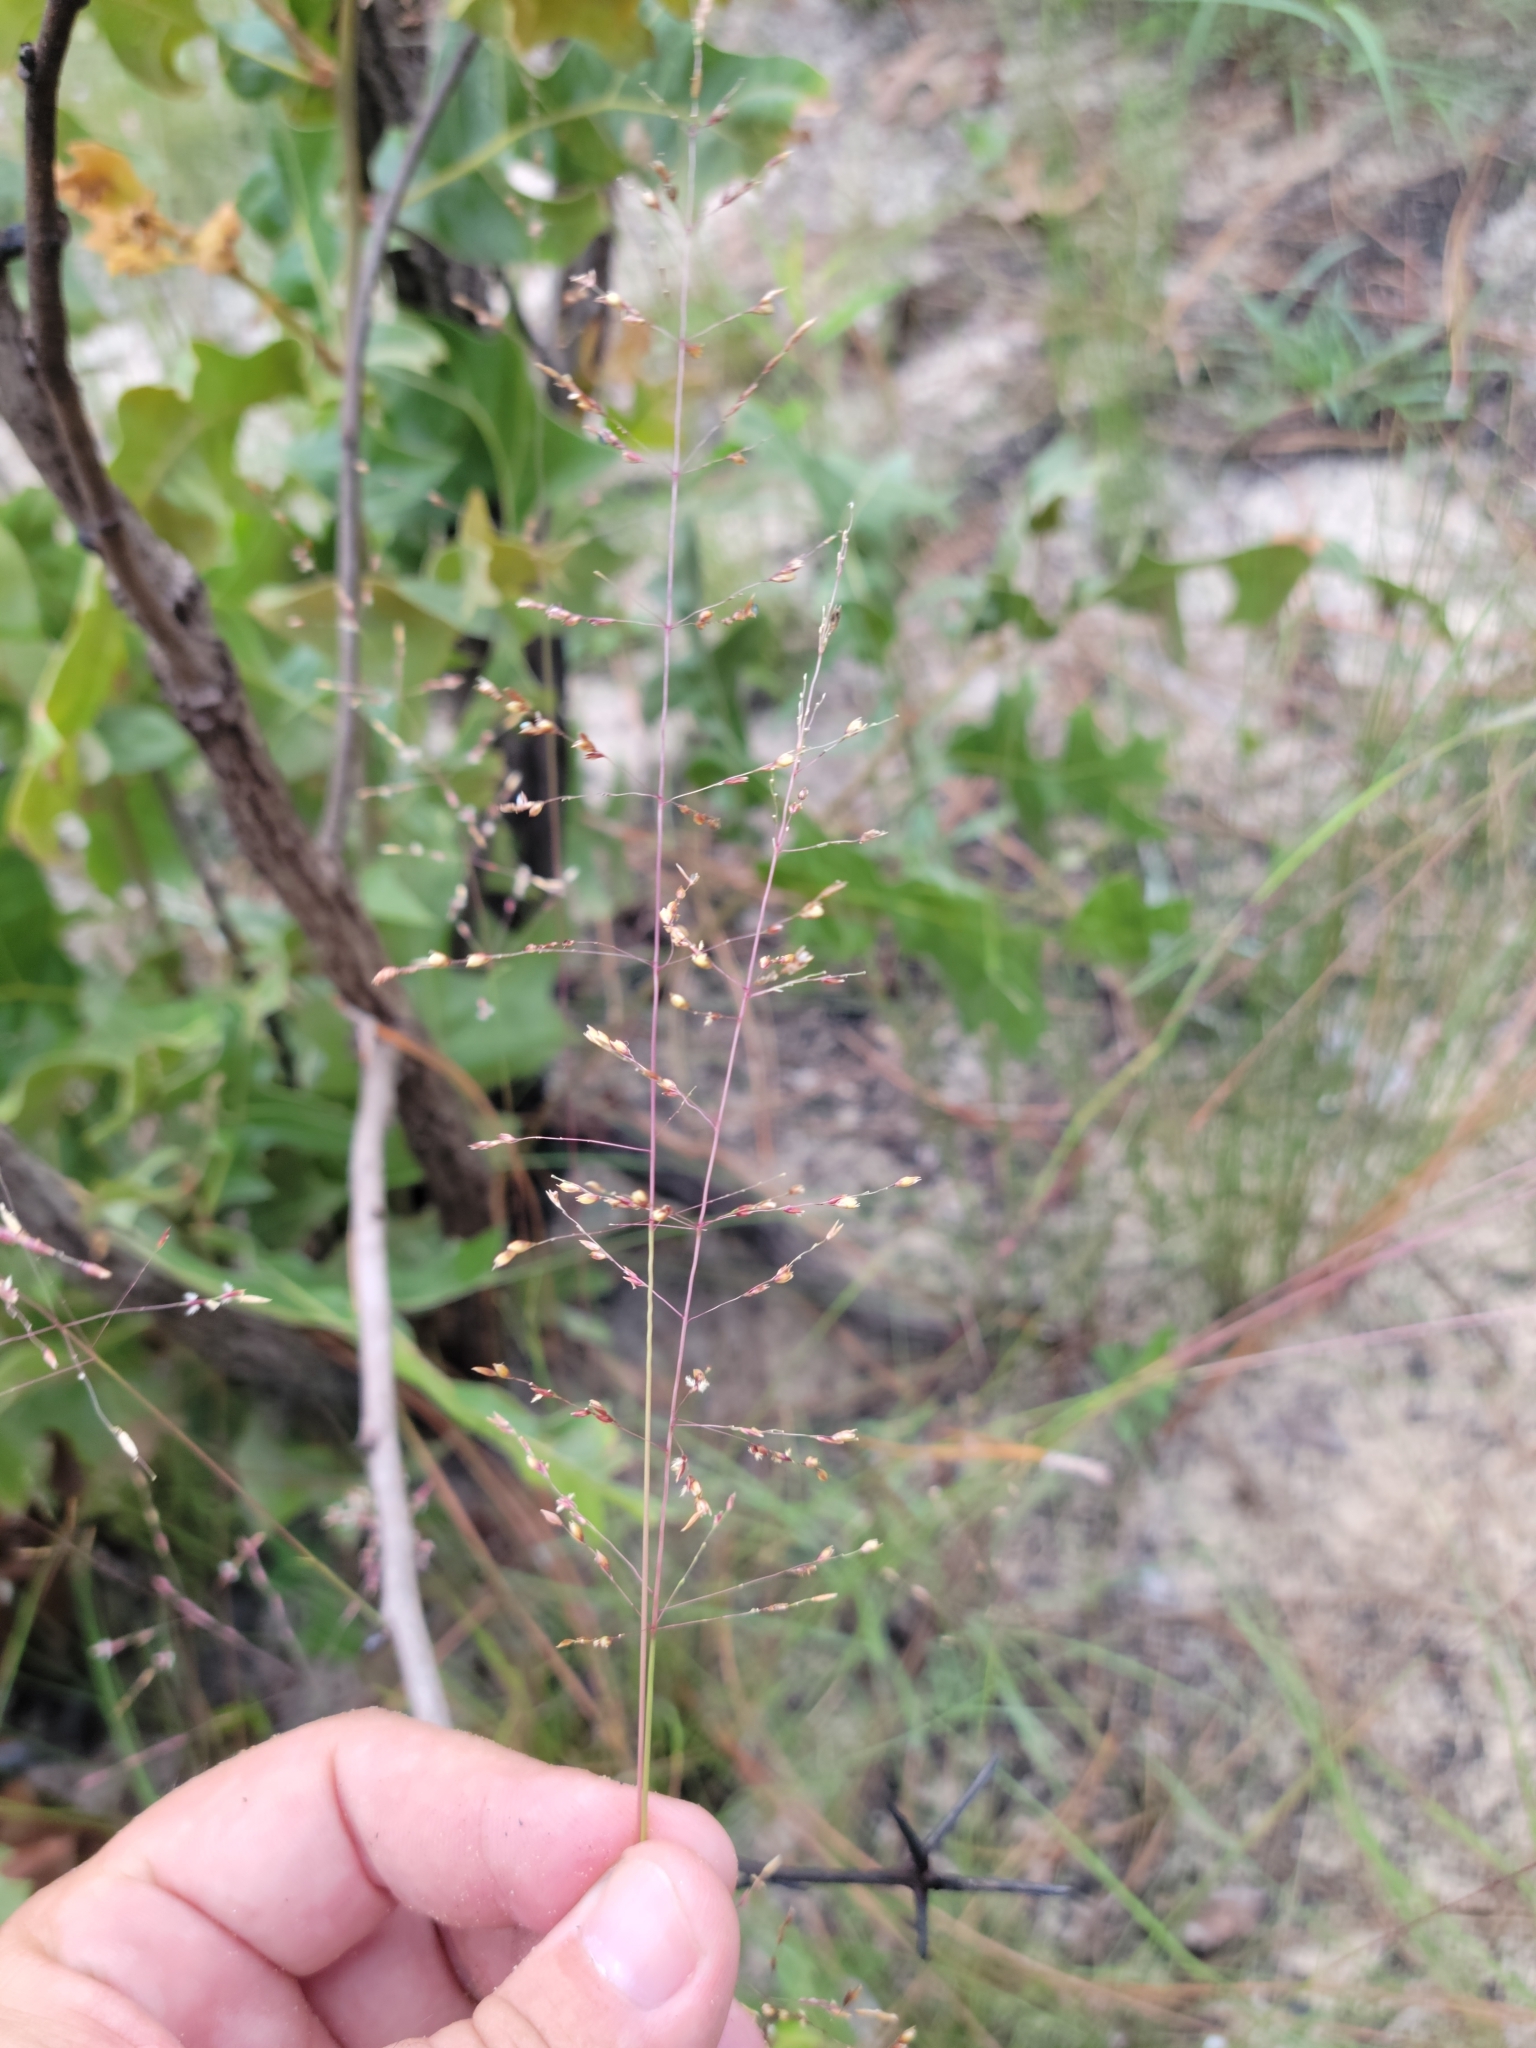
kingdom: Plantae
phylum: Tracheophyta
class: Liliopsida
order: Poales
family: Poaceae
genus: Sporobolus
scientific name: Sporobolus junceus
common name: Lizard grass
